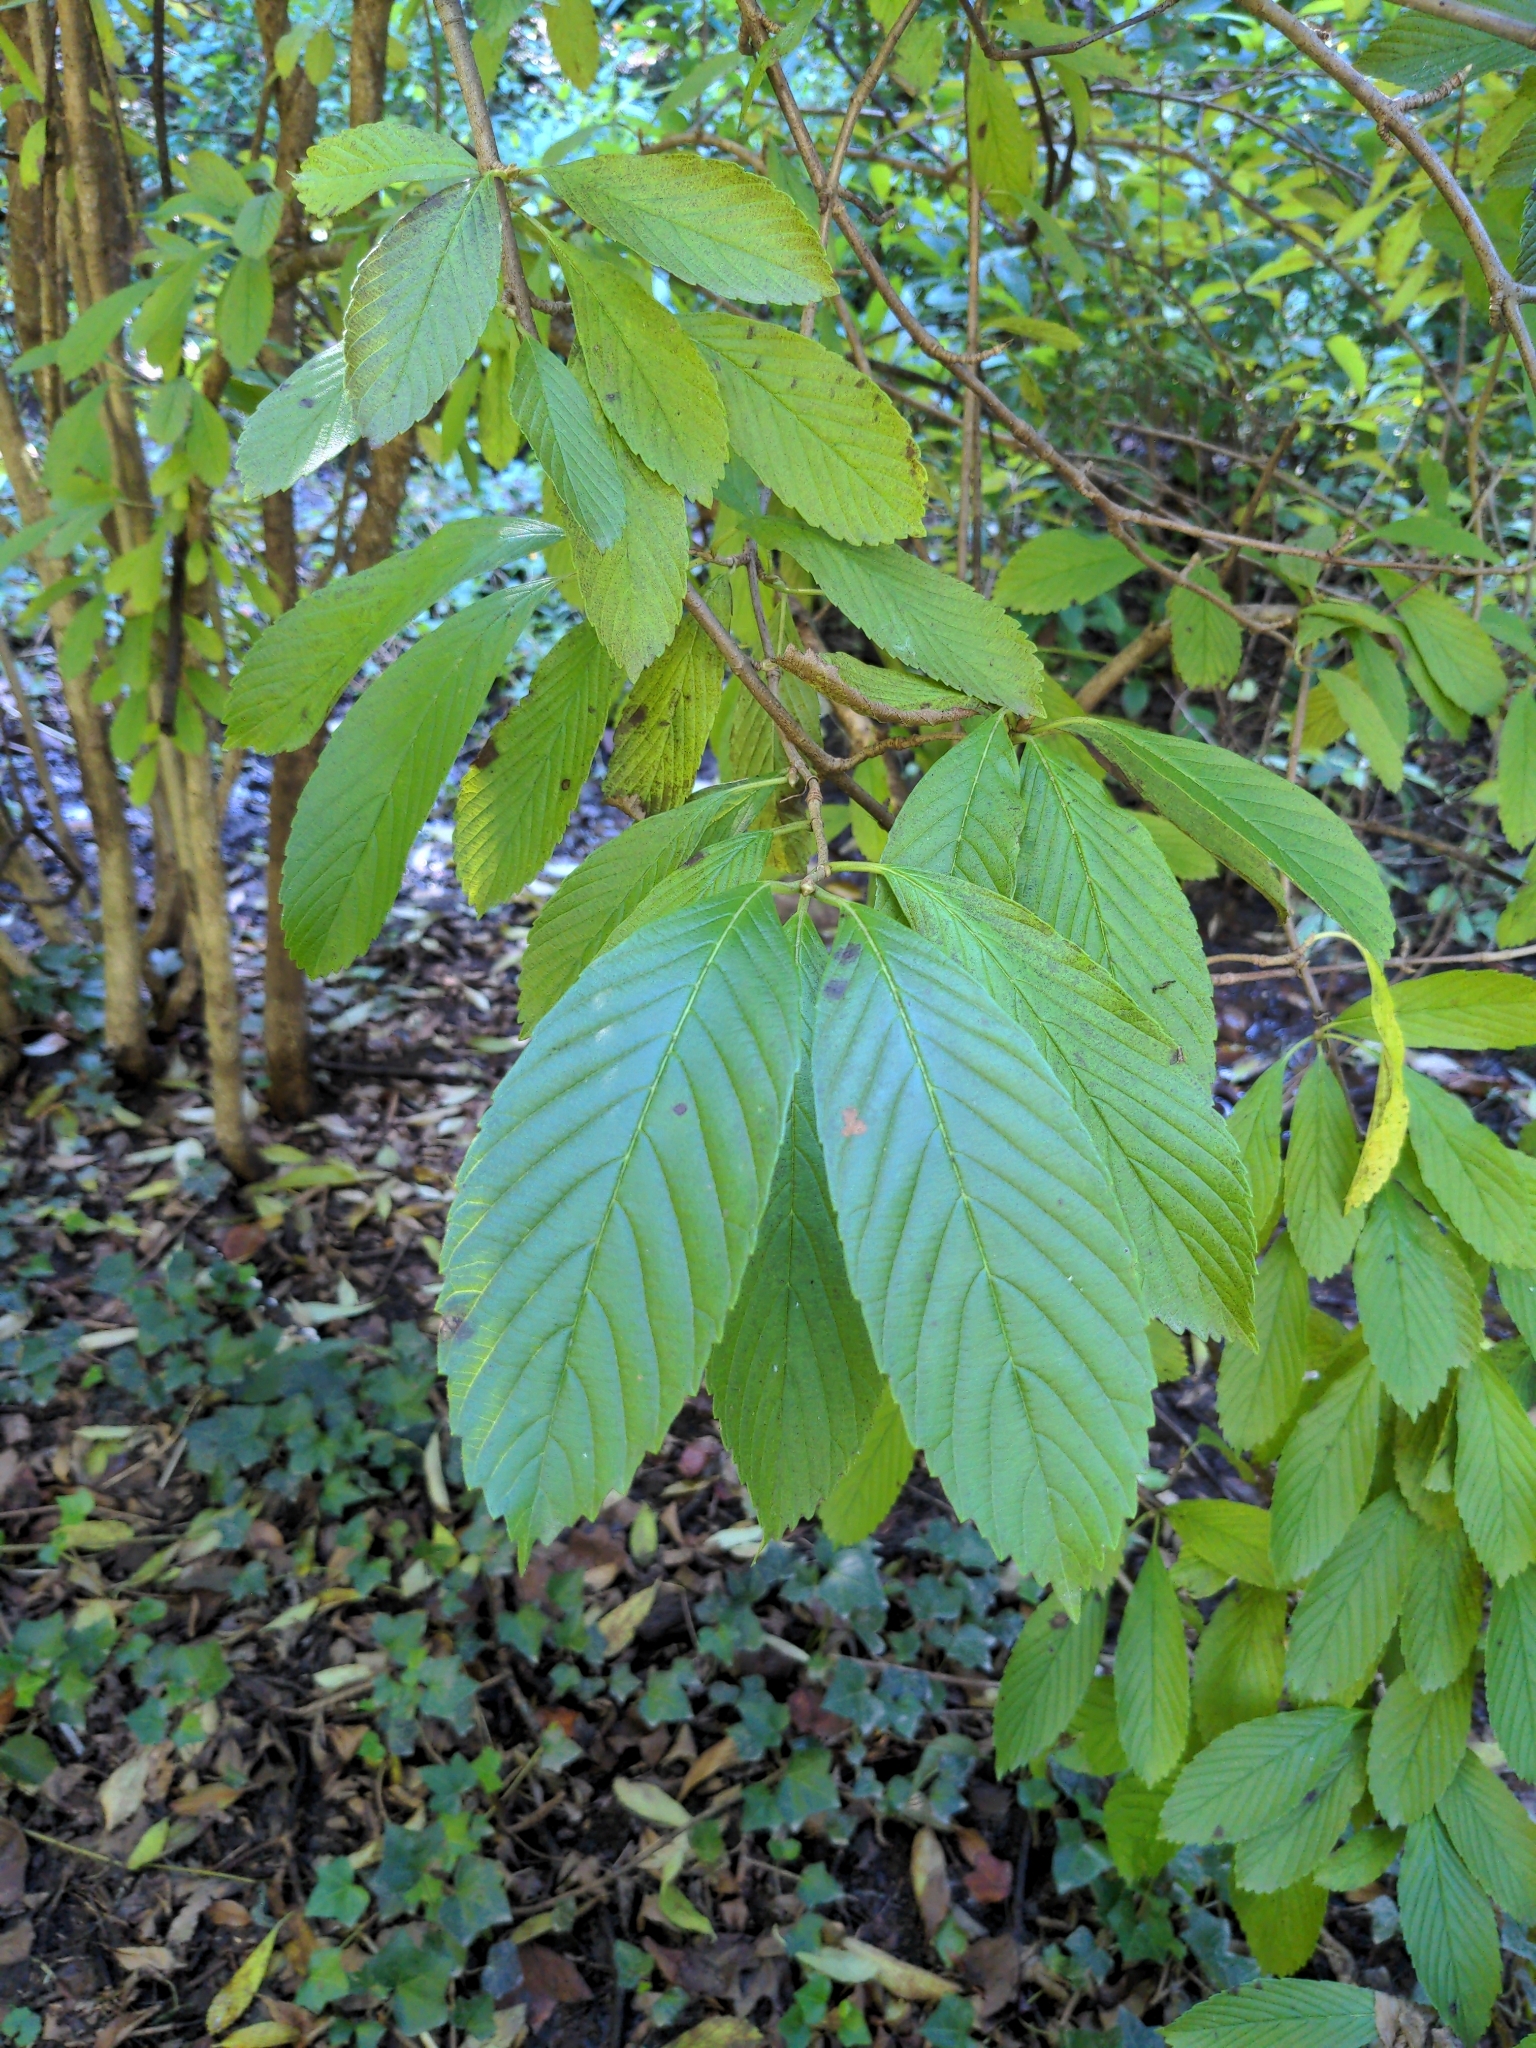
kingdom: Plantae
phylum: Tracheophyta
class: Magnoliopsida
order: Dipsacales
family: Viburnaceae
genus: Viburnum
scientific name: Viburnum sieboldii
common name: Siebold's arrowwood
